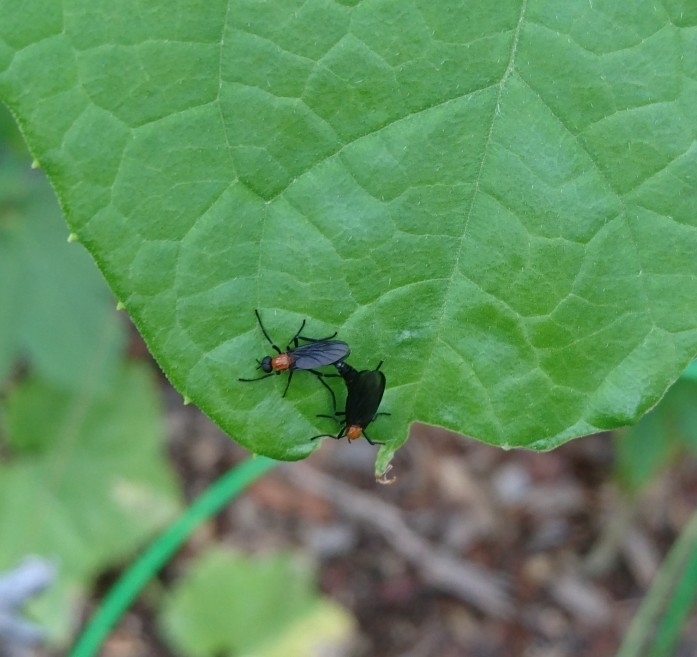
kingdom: Animalia
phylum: Arthropoda
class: Insecta
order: Diptera
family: Bibionidae
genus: Plecia
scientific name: Plecia nearctica
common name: March fly
